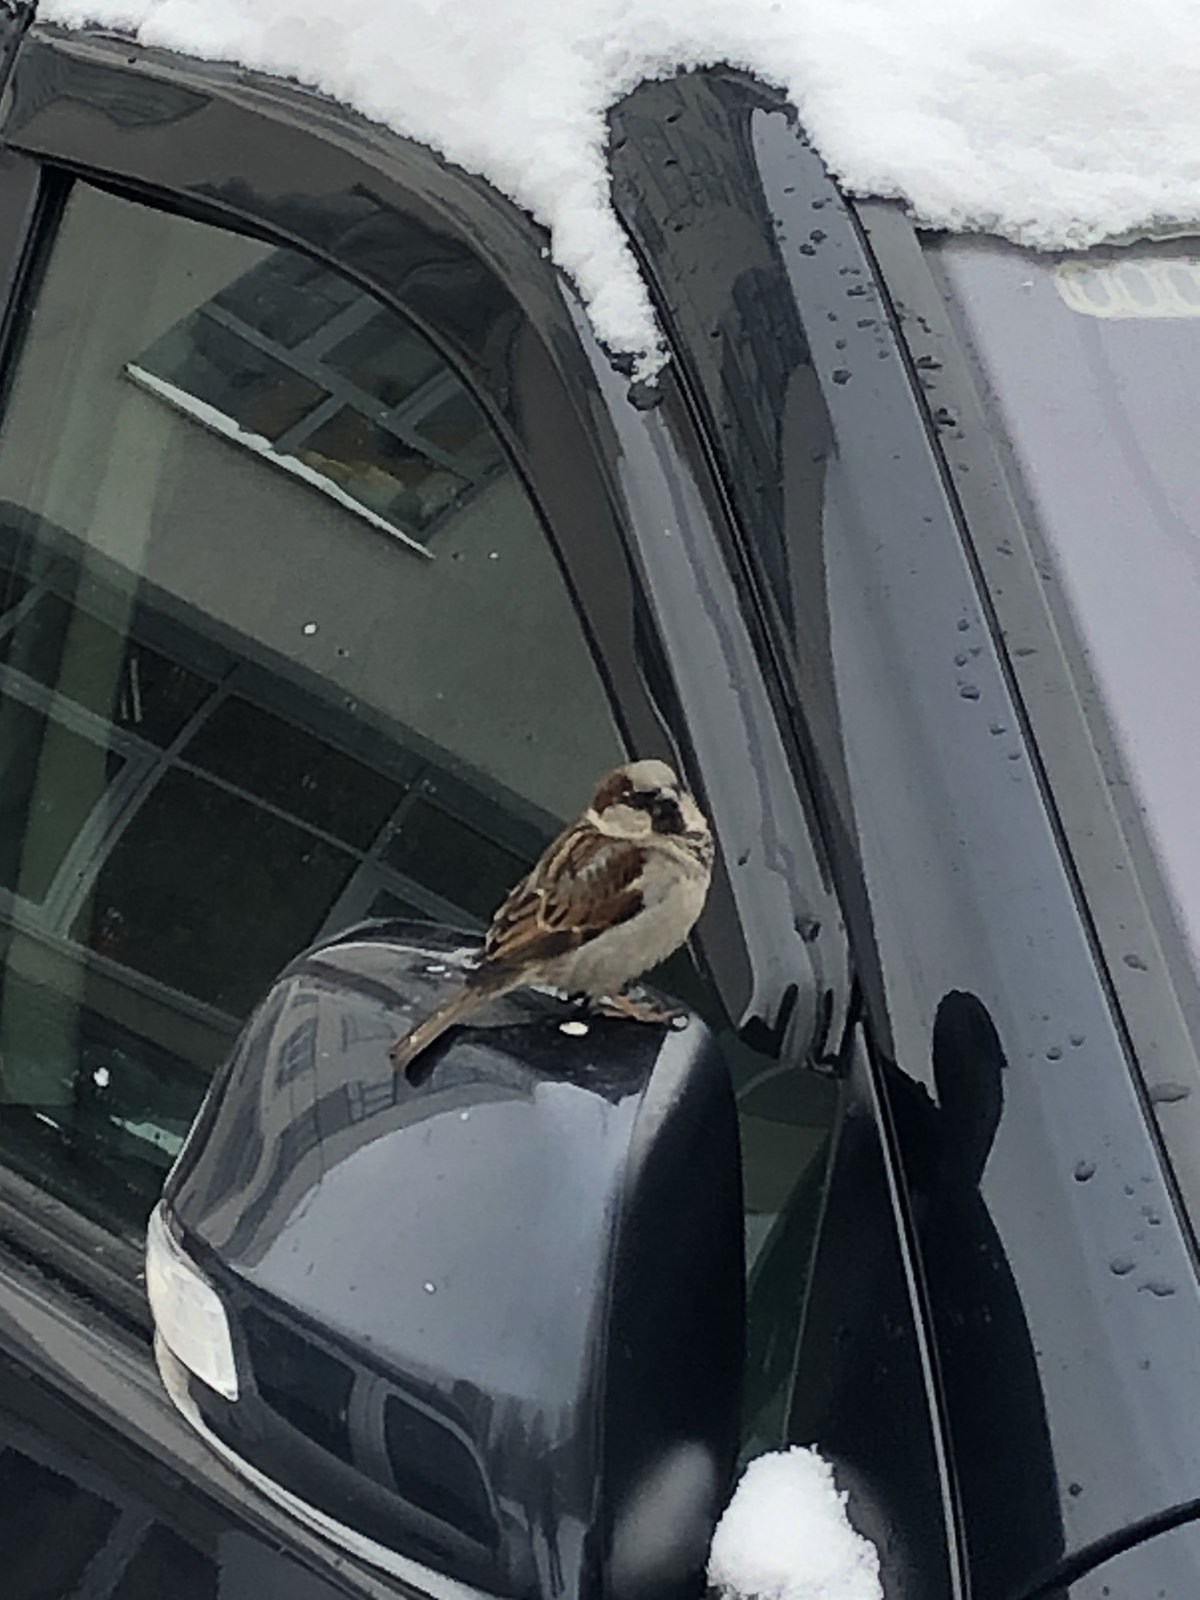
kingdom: Animalia
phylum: Chordata
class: Aves
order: Passeriformes
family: Passeridae
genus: Passer
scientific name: Passer domesticus
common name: House sparrow
